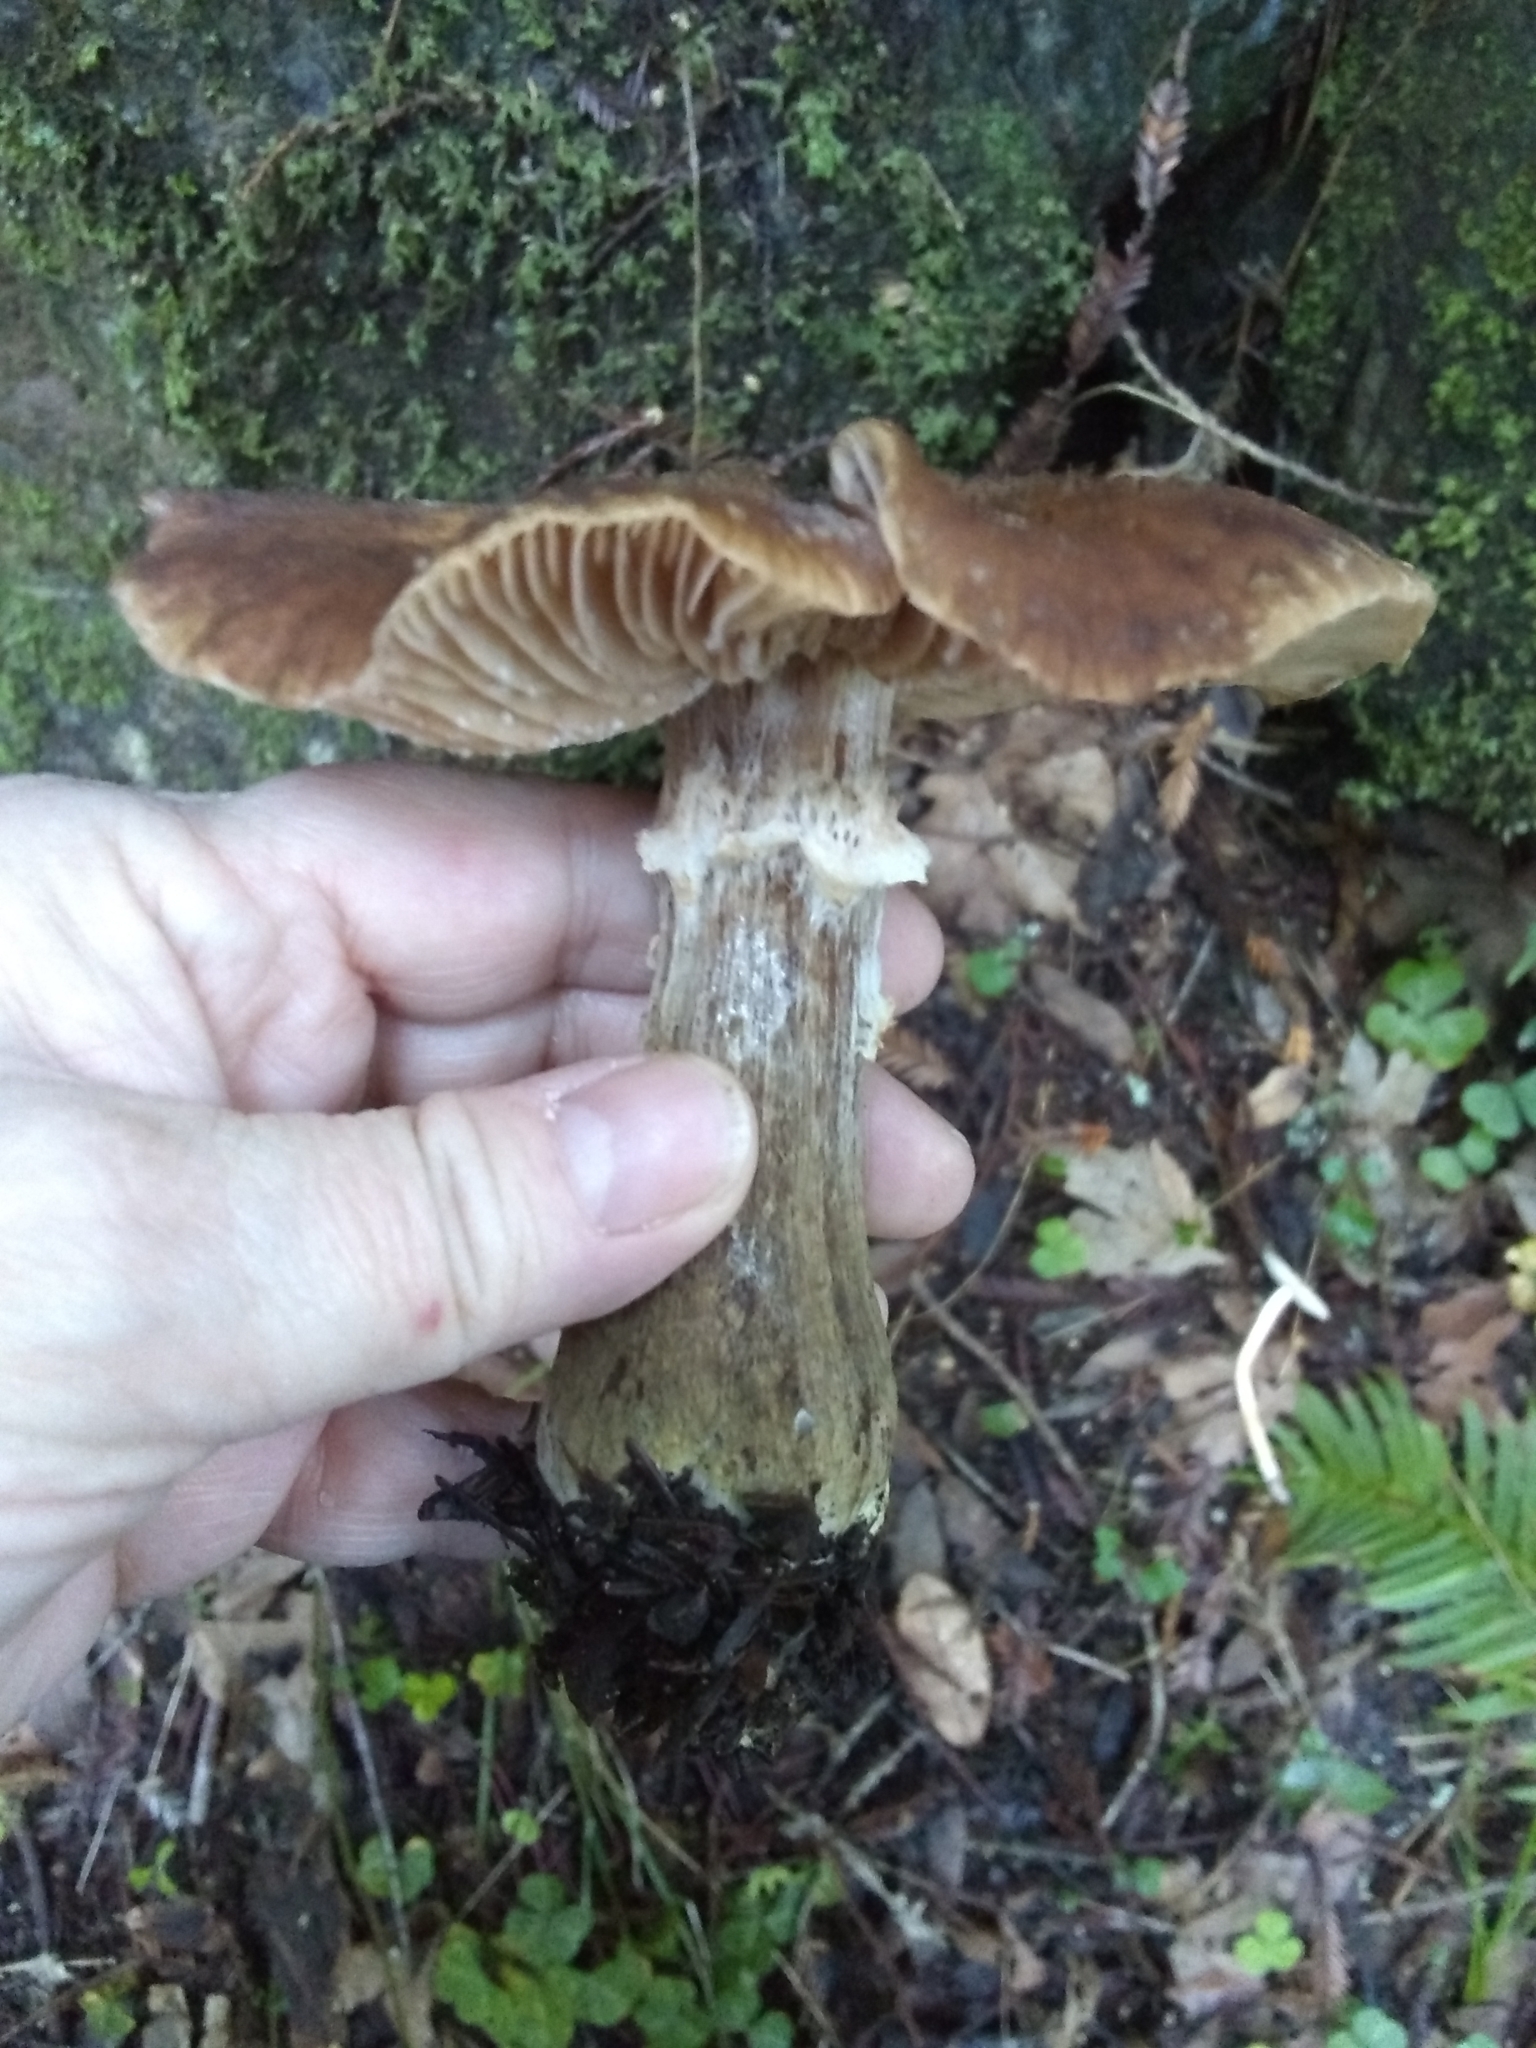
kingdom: Fungi
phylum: Basidiomycota
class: Agaricomycetes
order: Agaricales
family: Physalacriaceae
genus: Armillaria
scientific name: Armillaria sinapina
